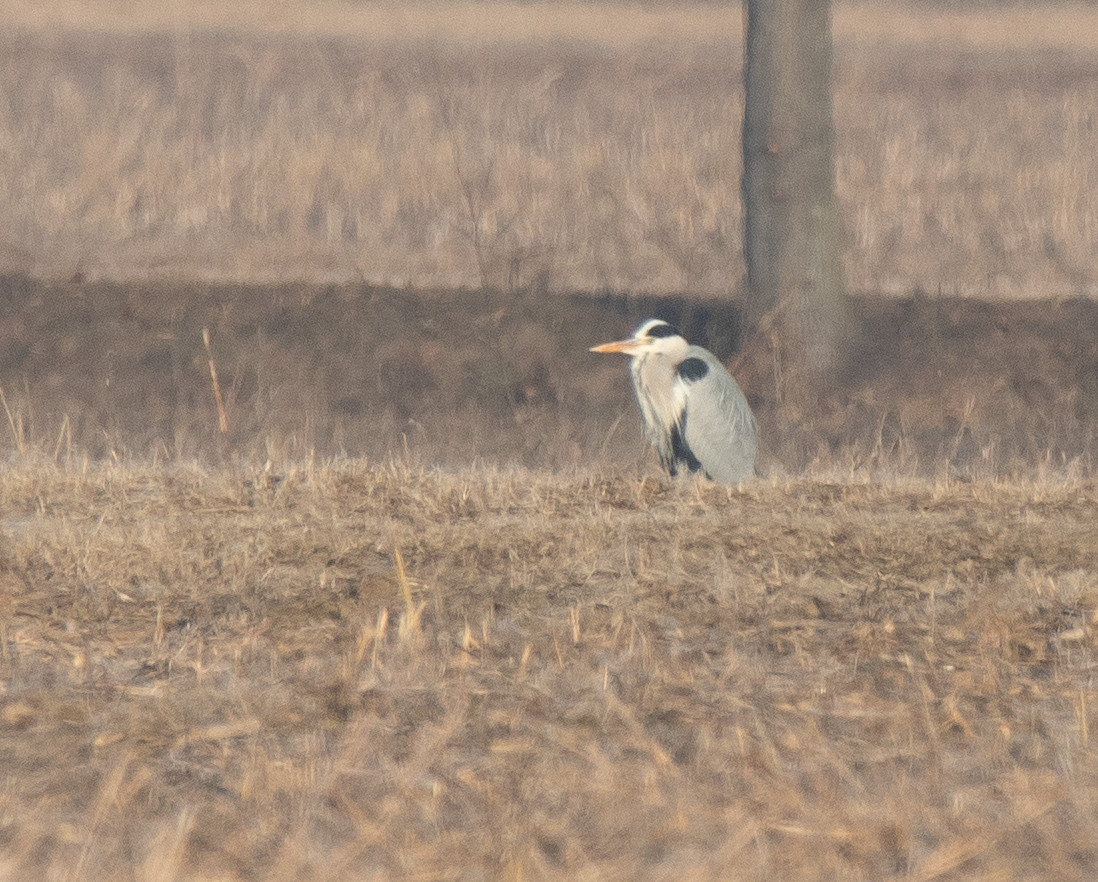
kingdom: Animalia
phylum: Chordata
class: Aves
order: Pelecaniformes
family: Ardeidae
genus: Ardea
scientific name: Ardea cinerea
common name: Grey heron
